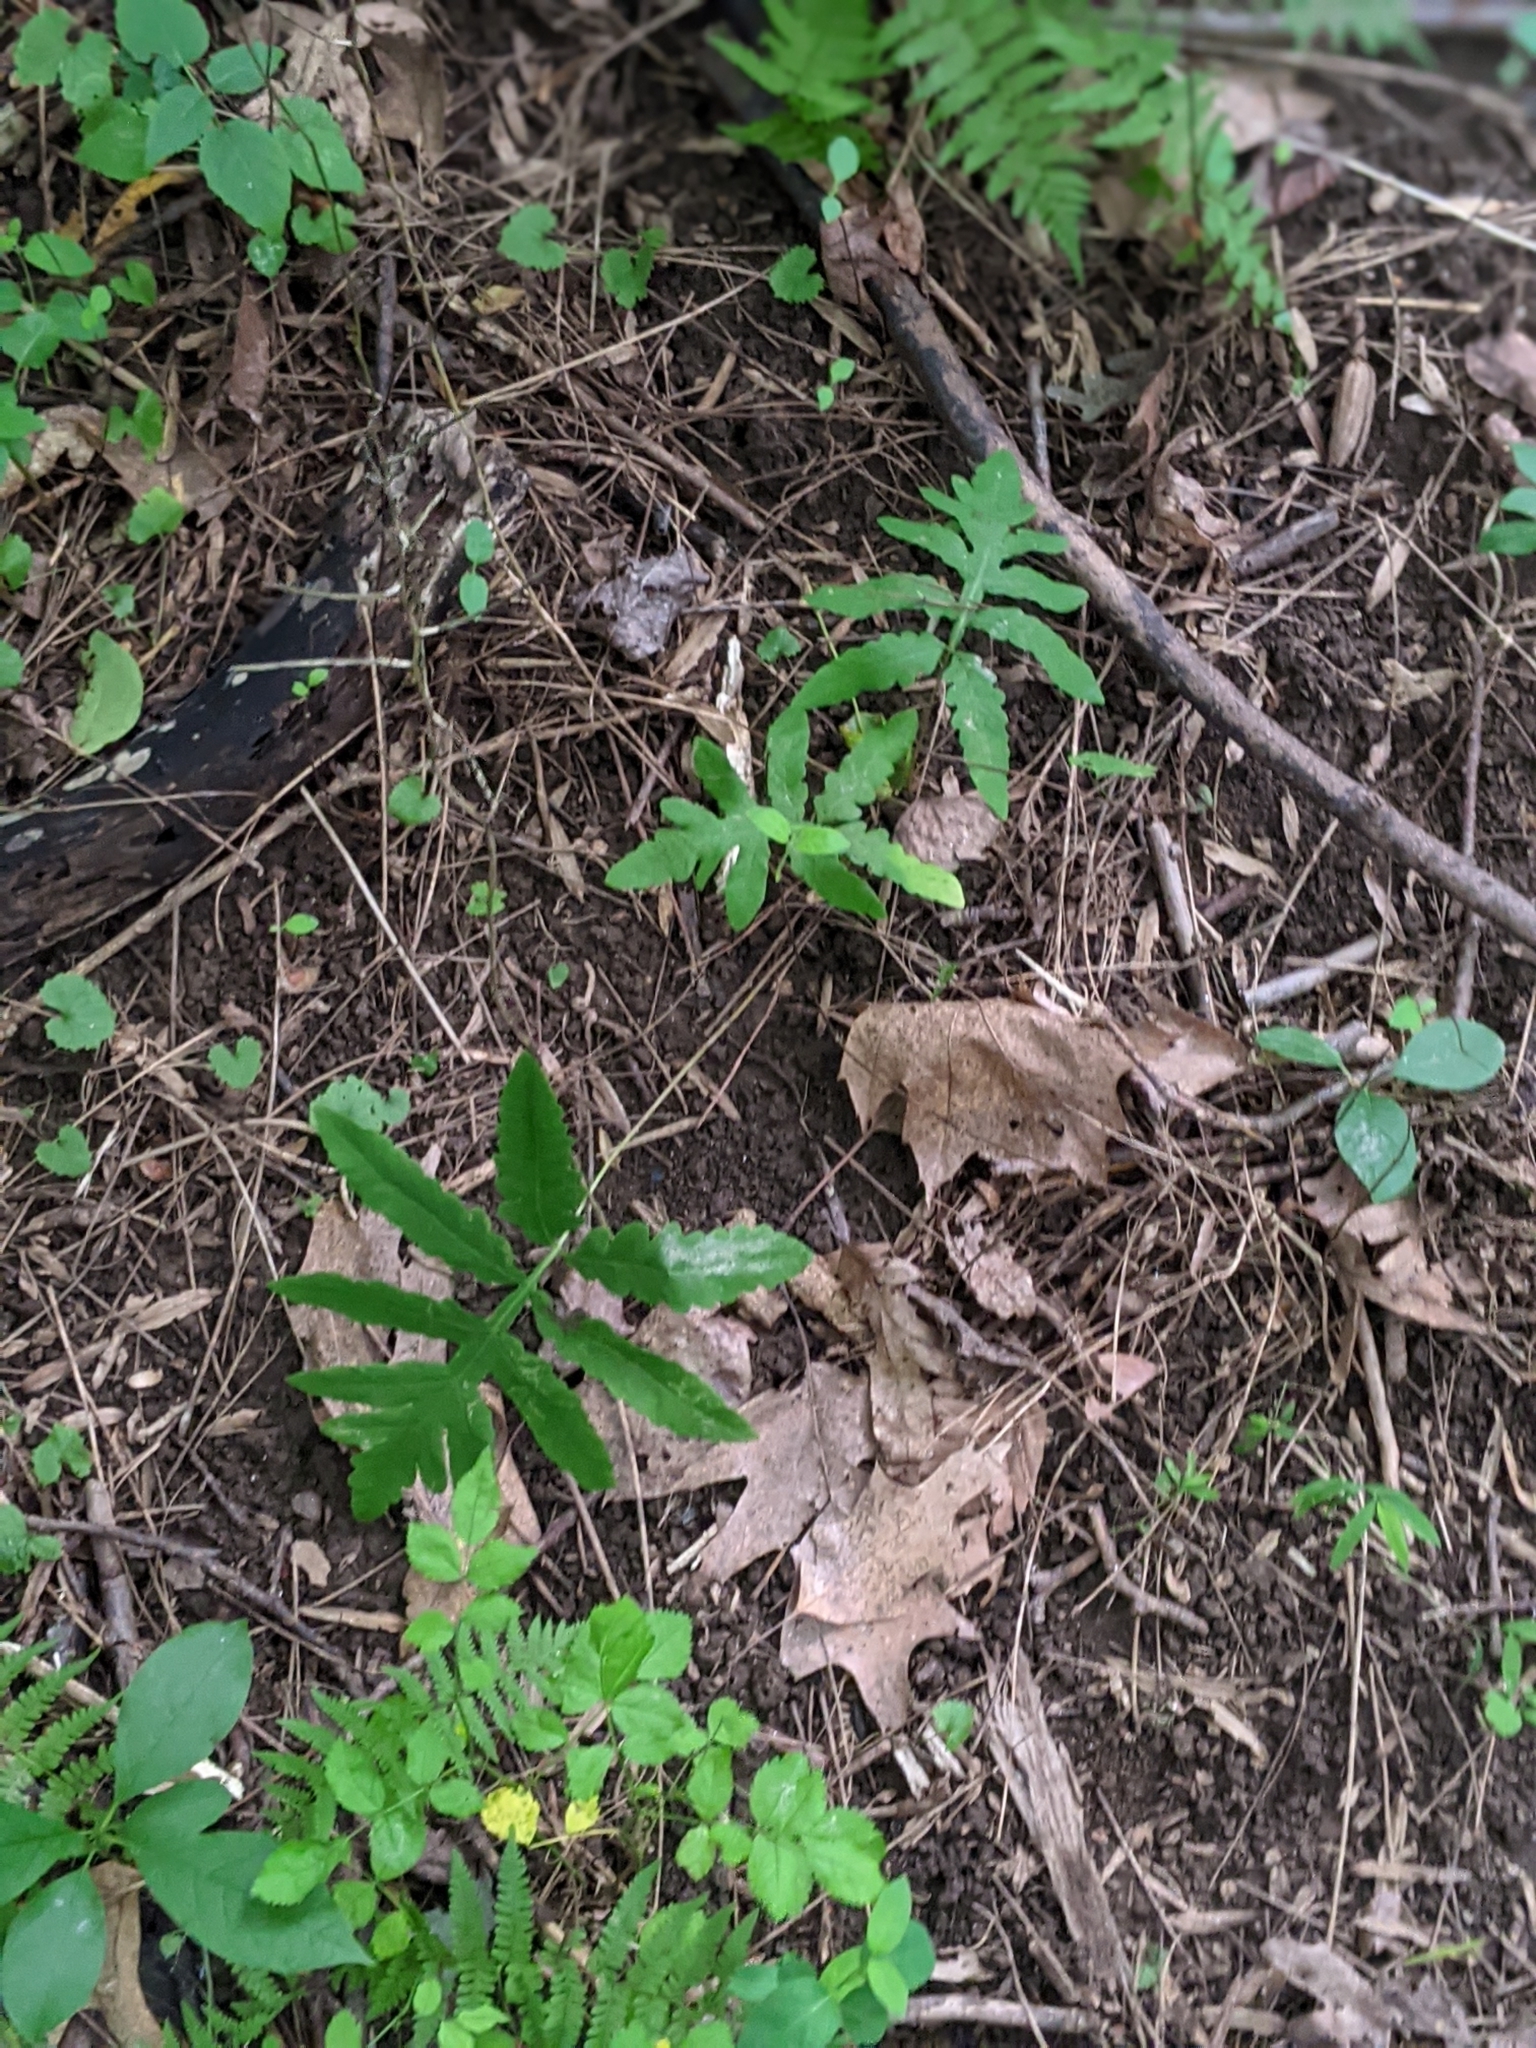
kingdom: Plantae
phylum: Tracheophyta
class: Polypodiopsida
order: Polypodiales
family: Onocleaceae
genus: Onoclea
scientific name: Onoclea sensibilis
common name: Sensitive fern
